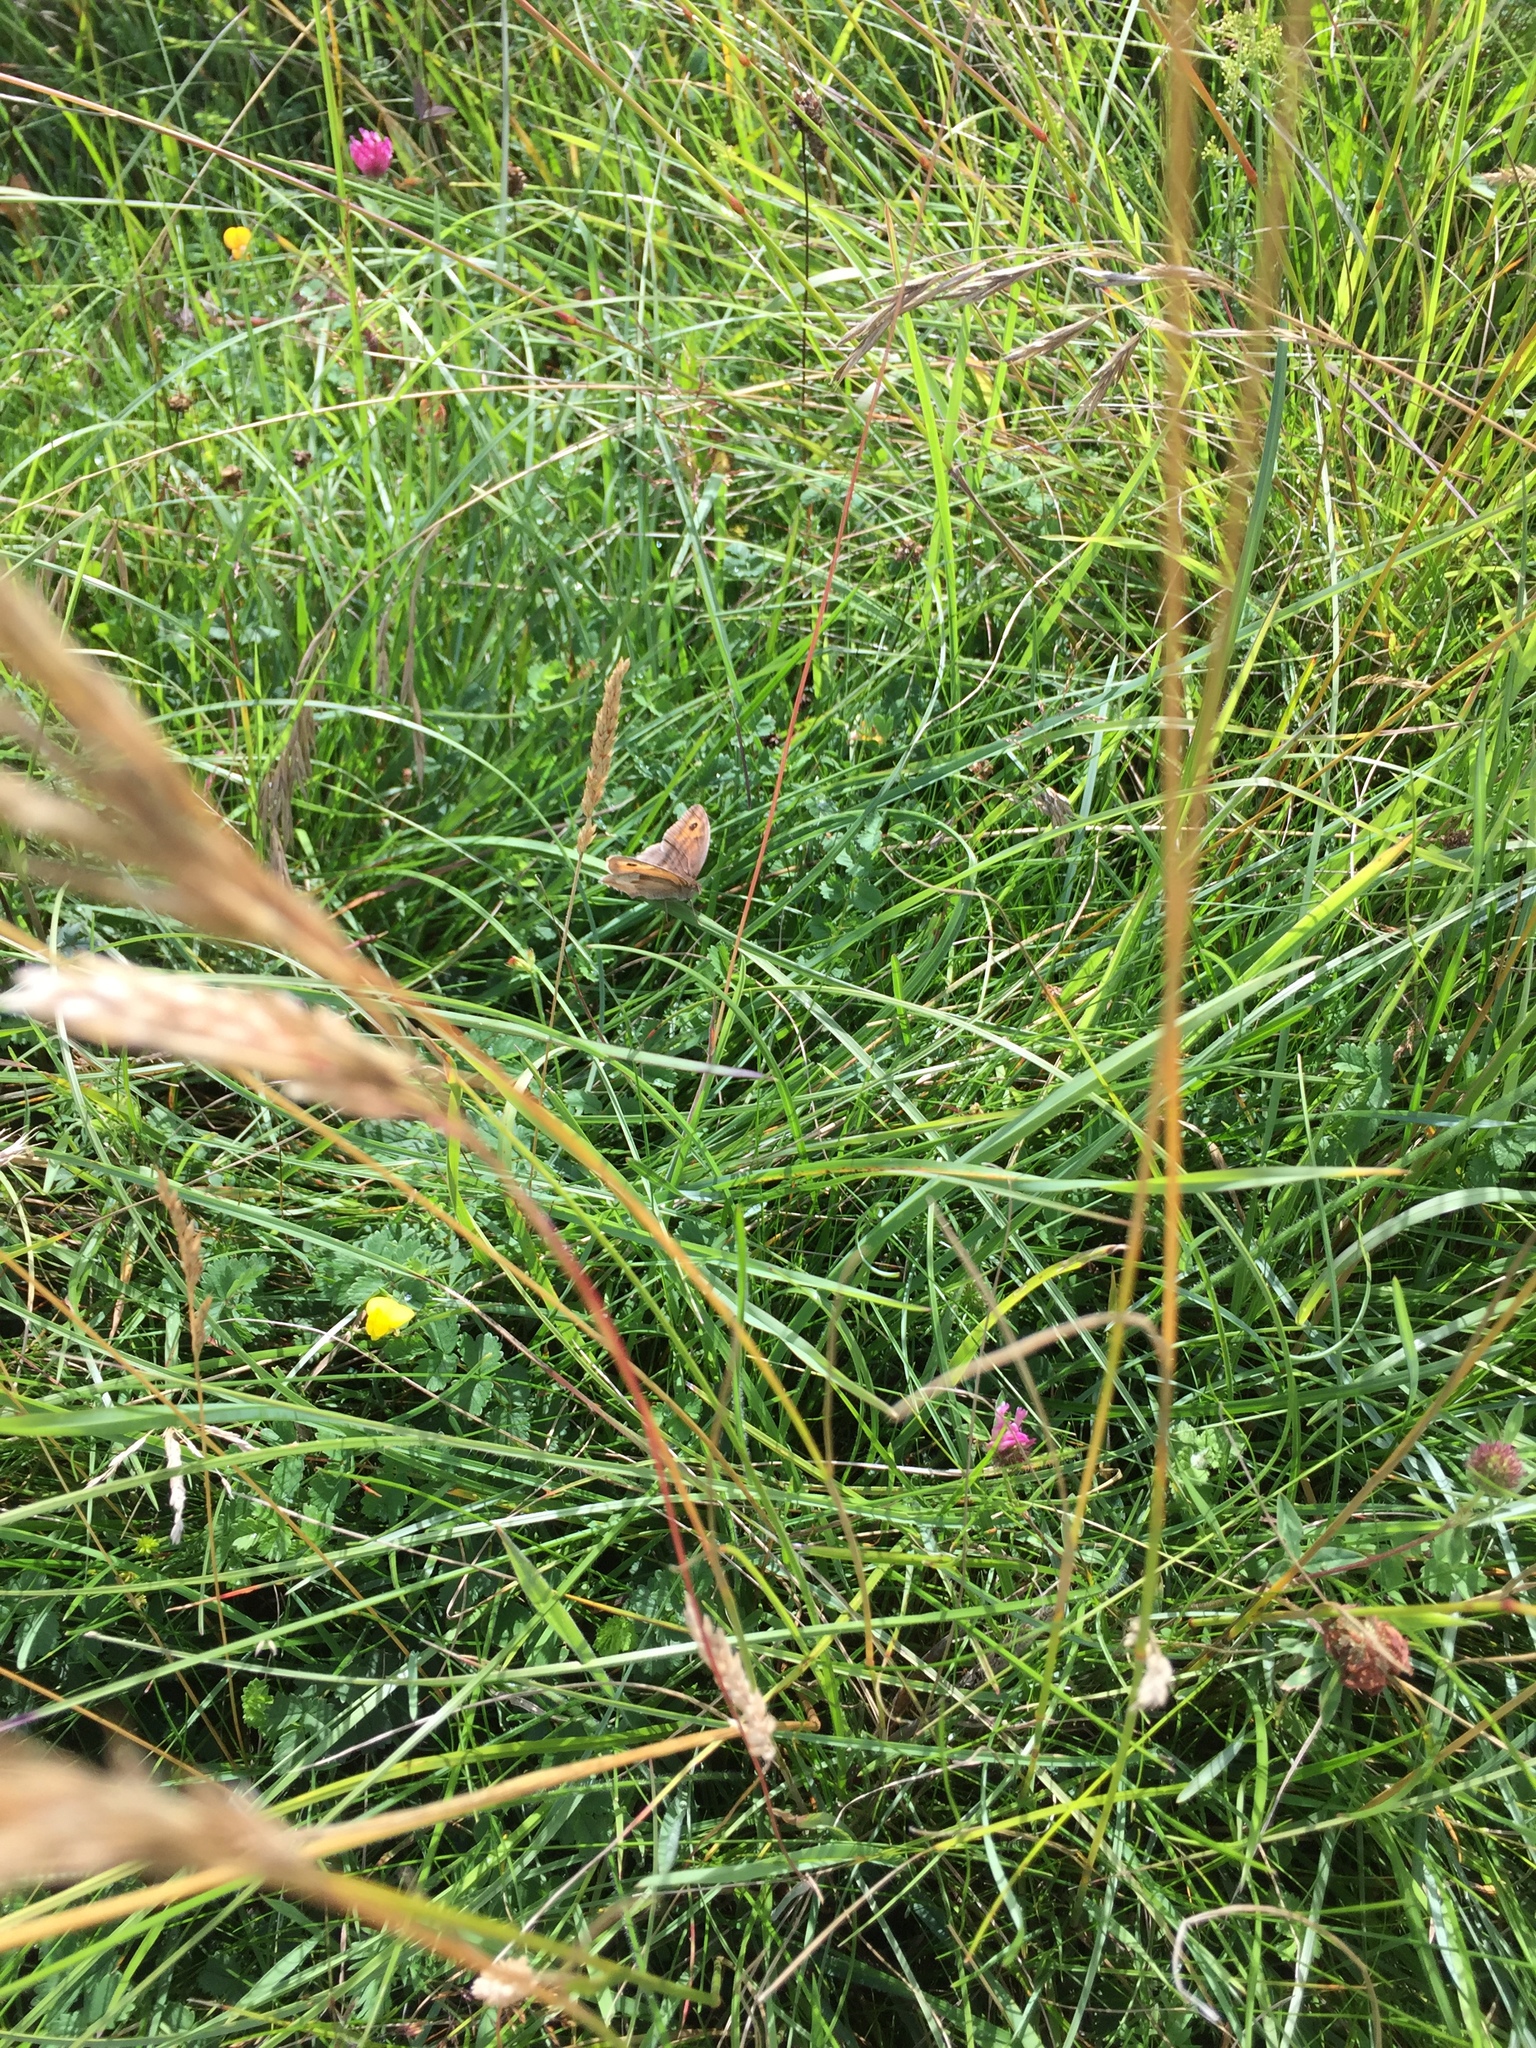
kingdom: Animalia
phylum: Arthropoda
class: Insecta
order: Lepidoptera
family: Nymphalidae
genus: Maniola
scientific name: Maniola jurtina
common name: Meadow brown
